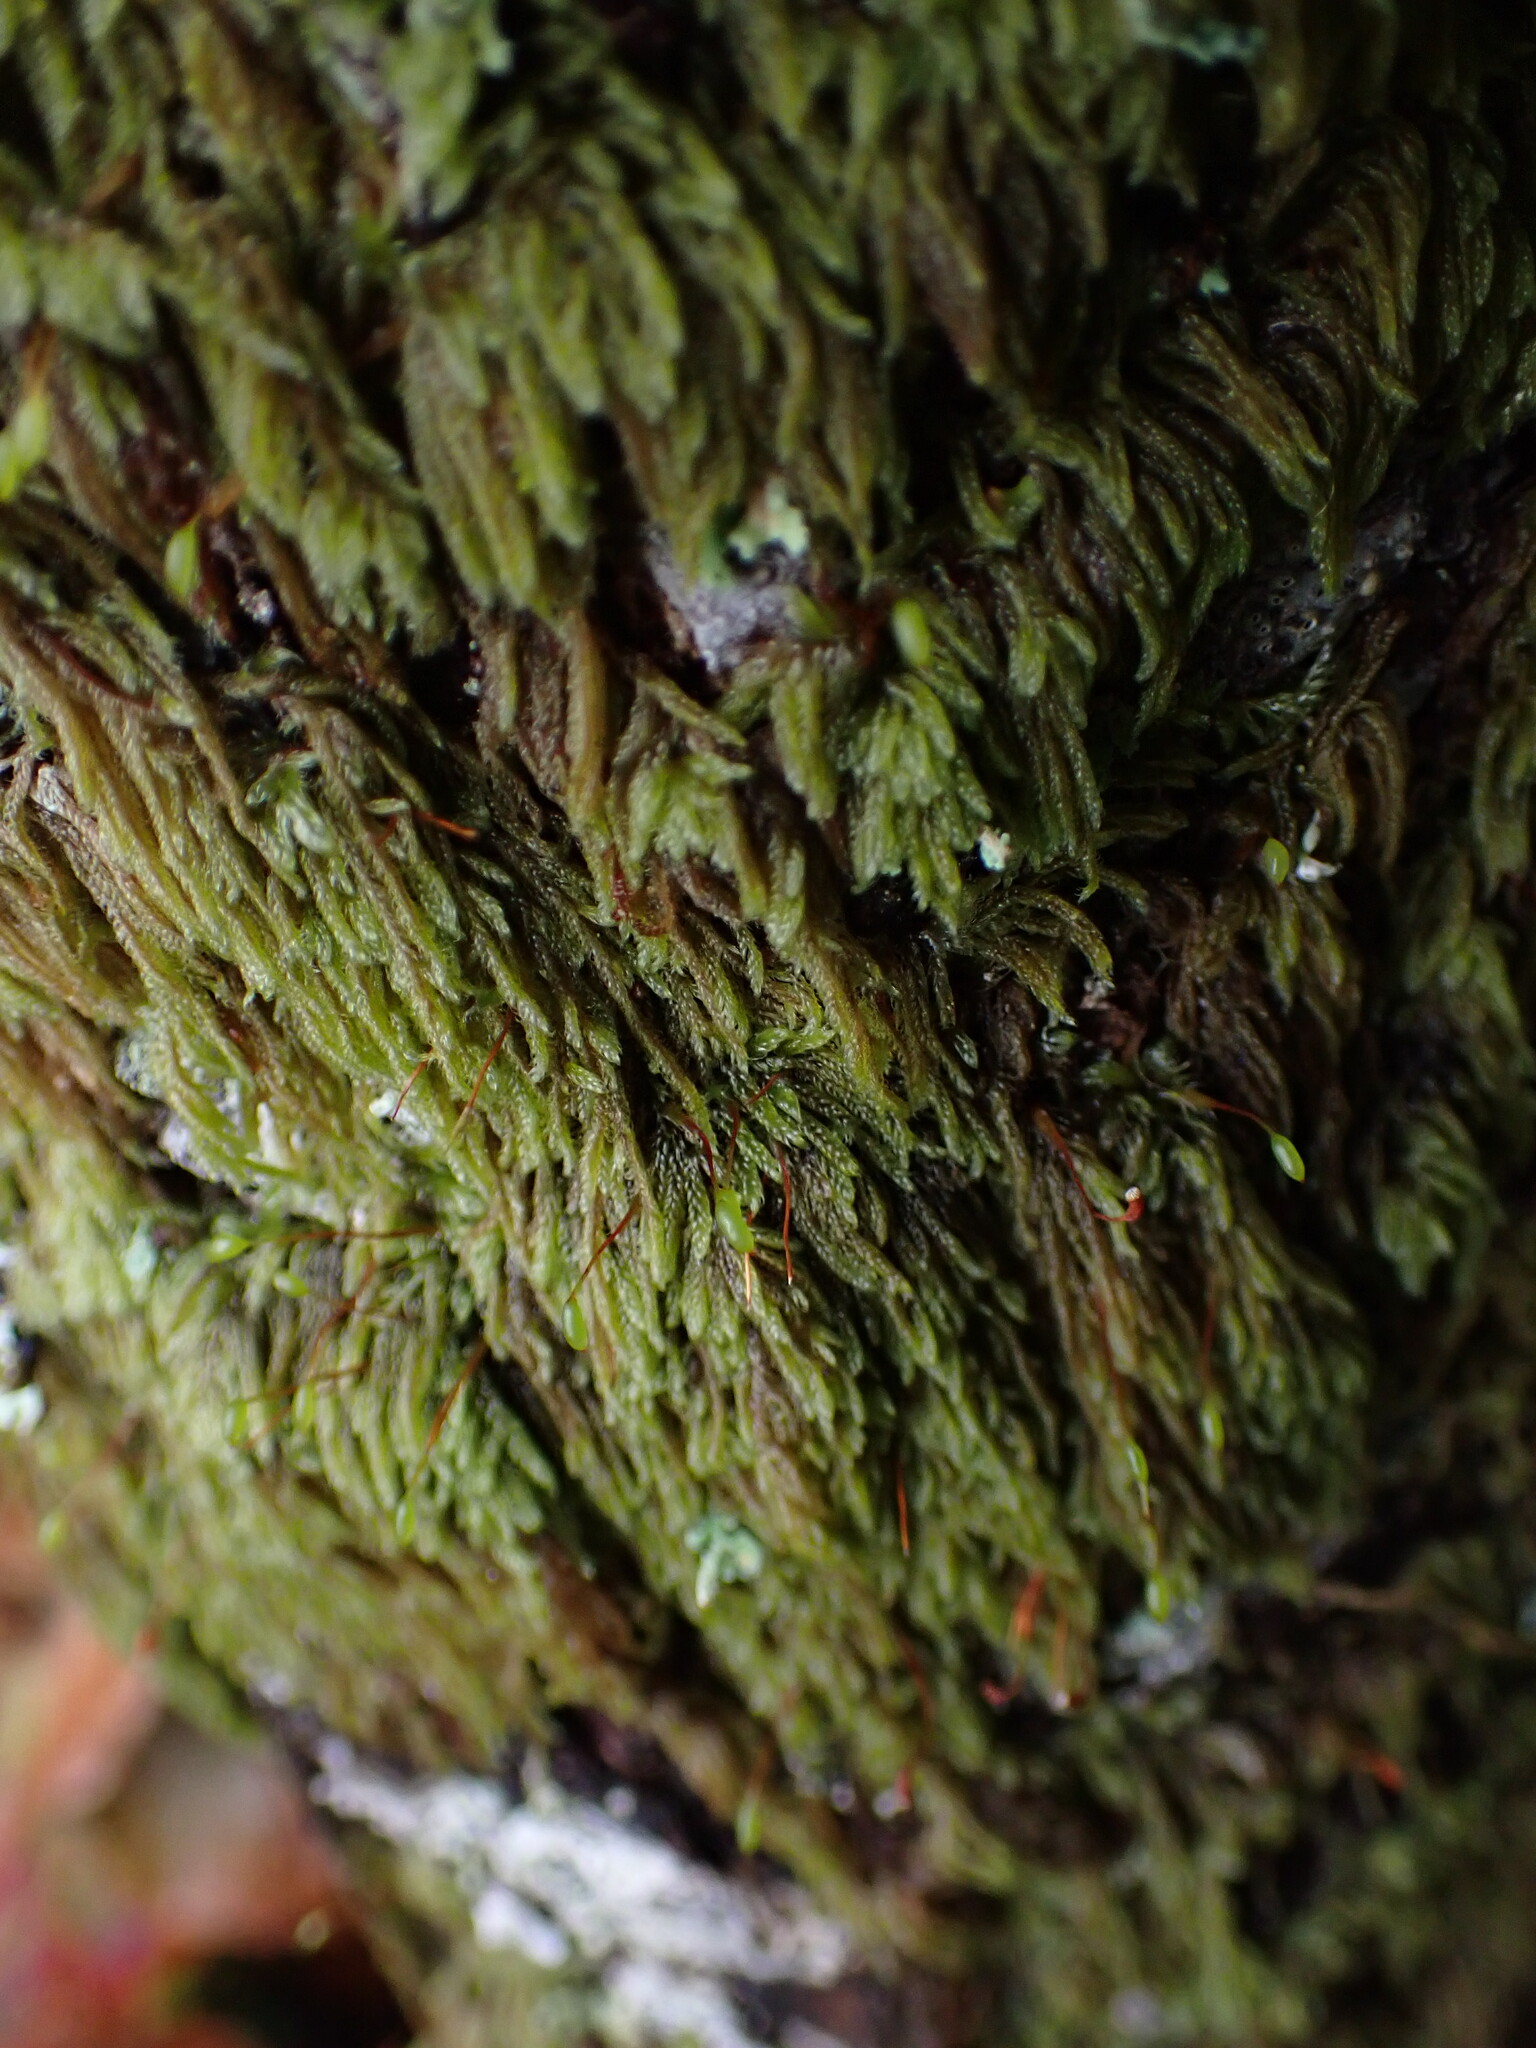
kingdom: Plantae
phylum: Bryophyta
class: Bryopsida
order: Hypnales
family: Pylaisiadelphaceae
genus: Trochophyllohypnum
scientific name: Trochophyllohypnum circinale
